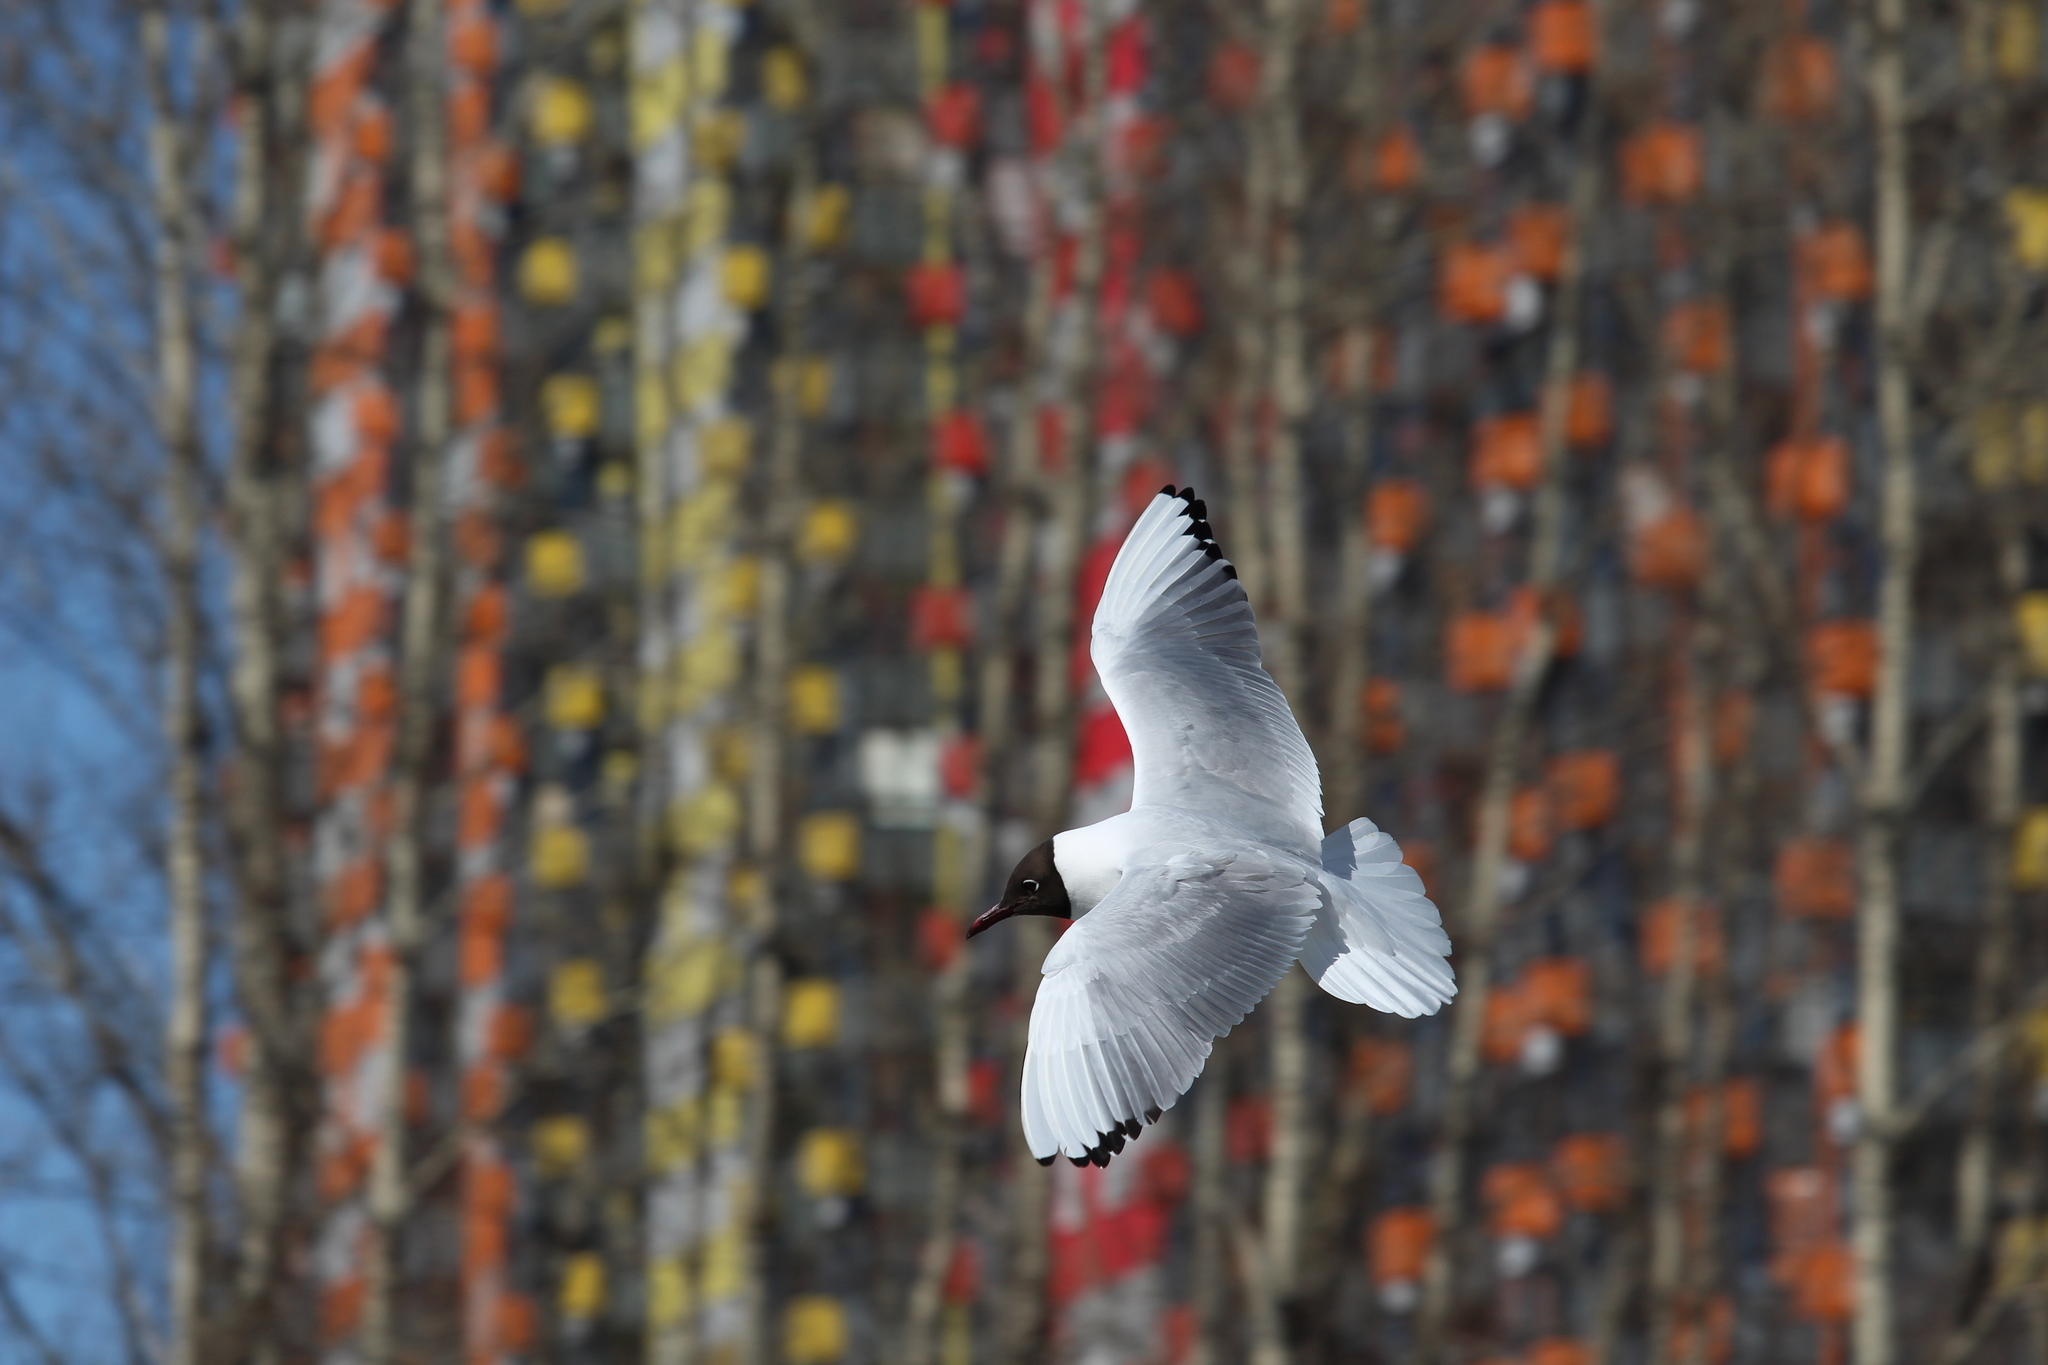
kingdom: Animalia
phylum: Chordata
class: Aves
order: Charadriiformes
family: Laridae
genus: Chroicocephalus
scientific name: Chroicocephalus ridibundus
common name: Black-headed gull
